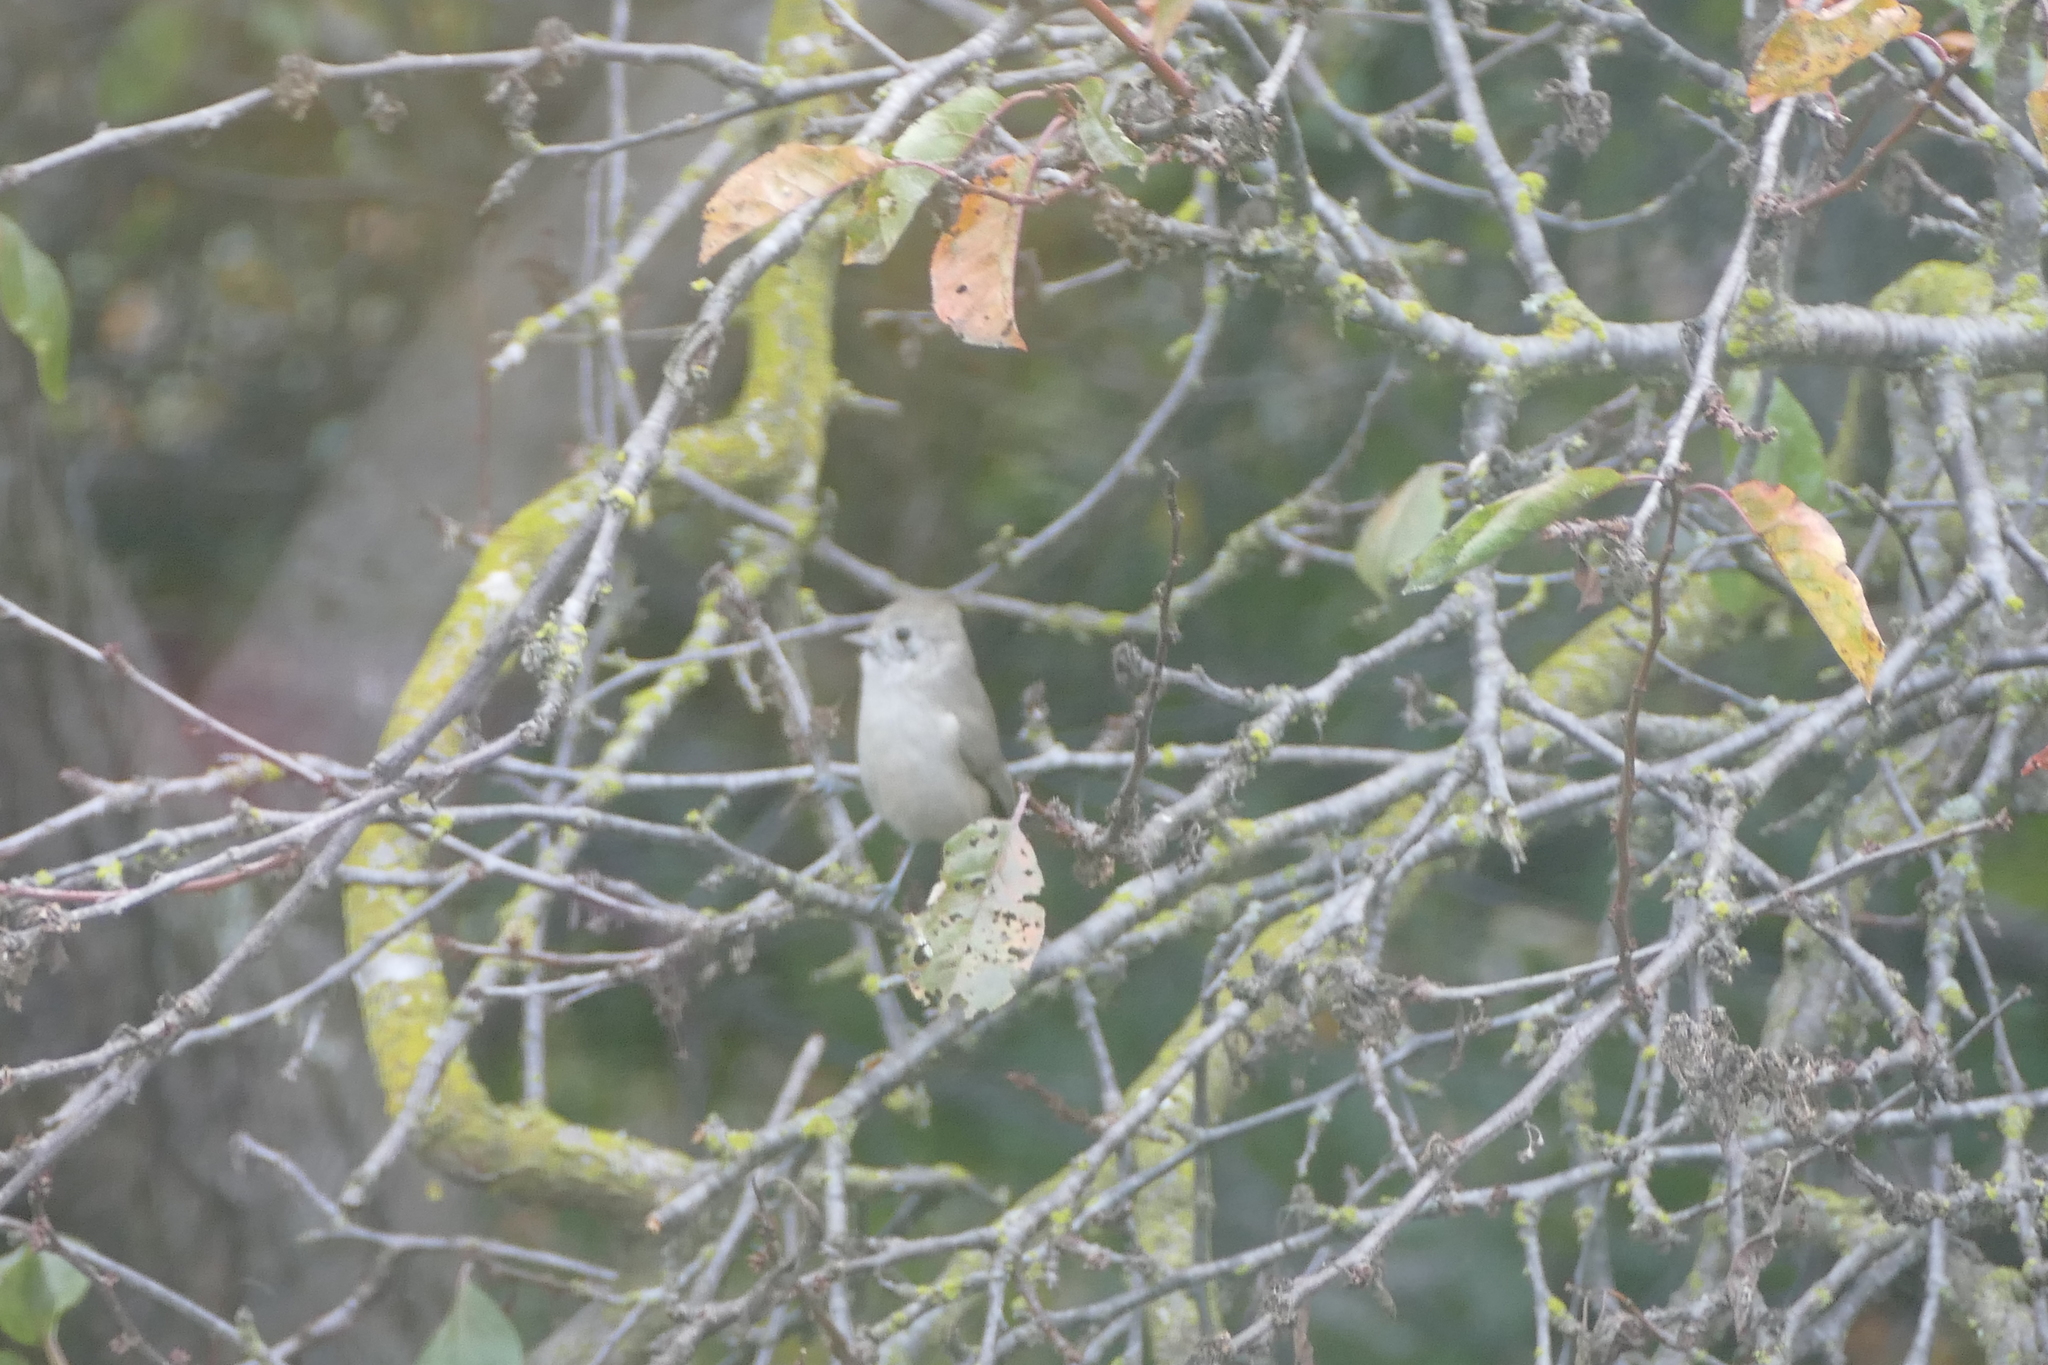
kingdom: Animalia
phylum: Chordata
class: Aves
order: Passeriformes
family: Paridae
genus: Baeolophus
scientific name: Baeolophus inornatus
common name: Oak titmouse
